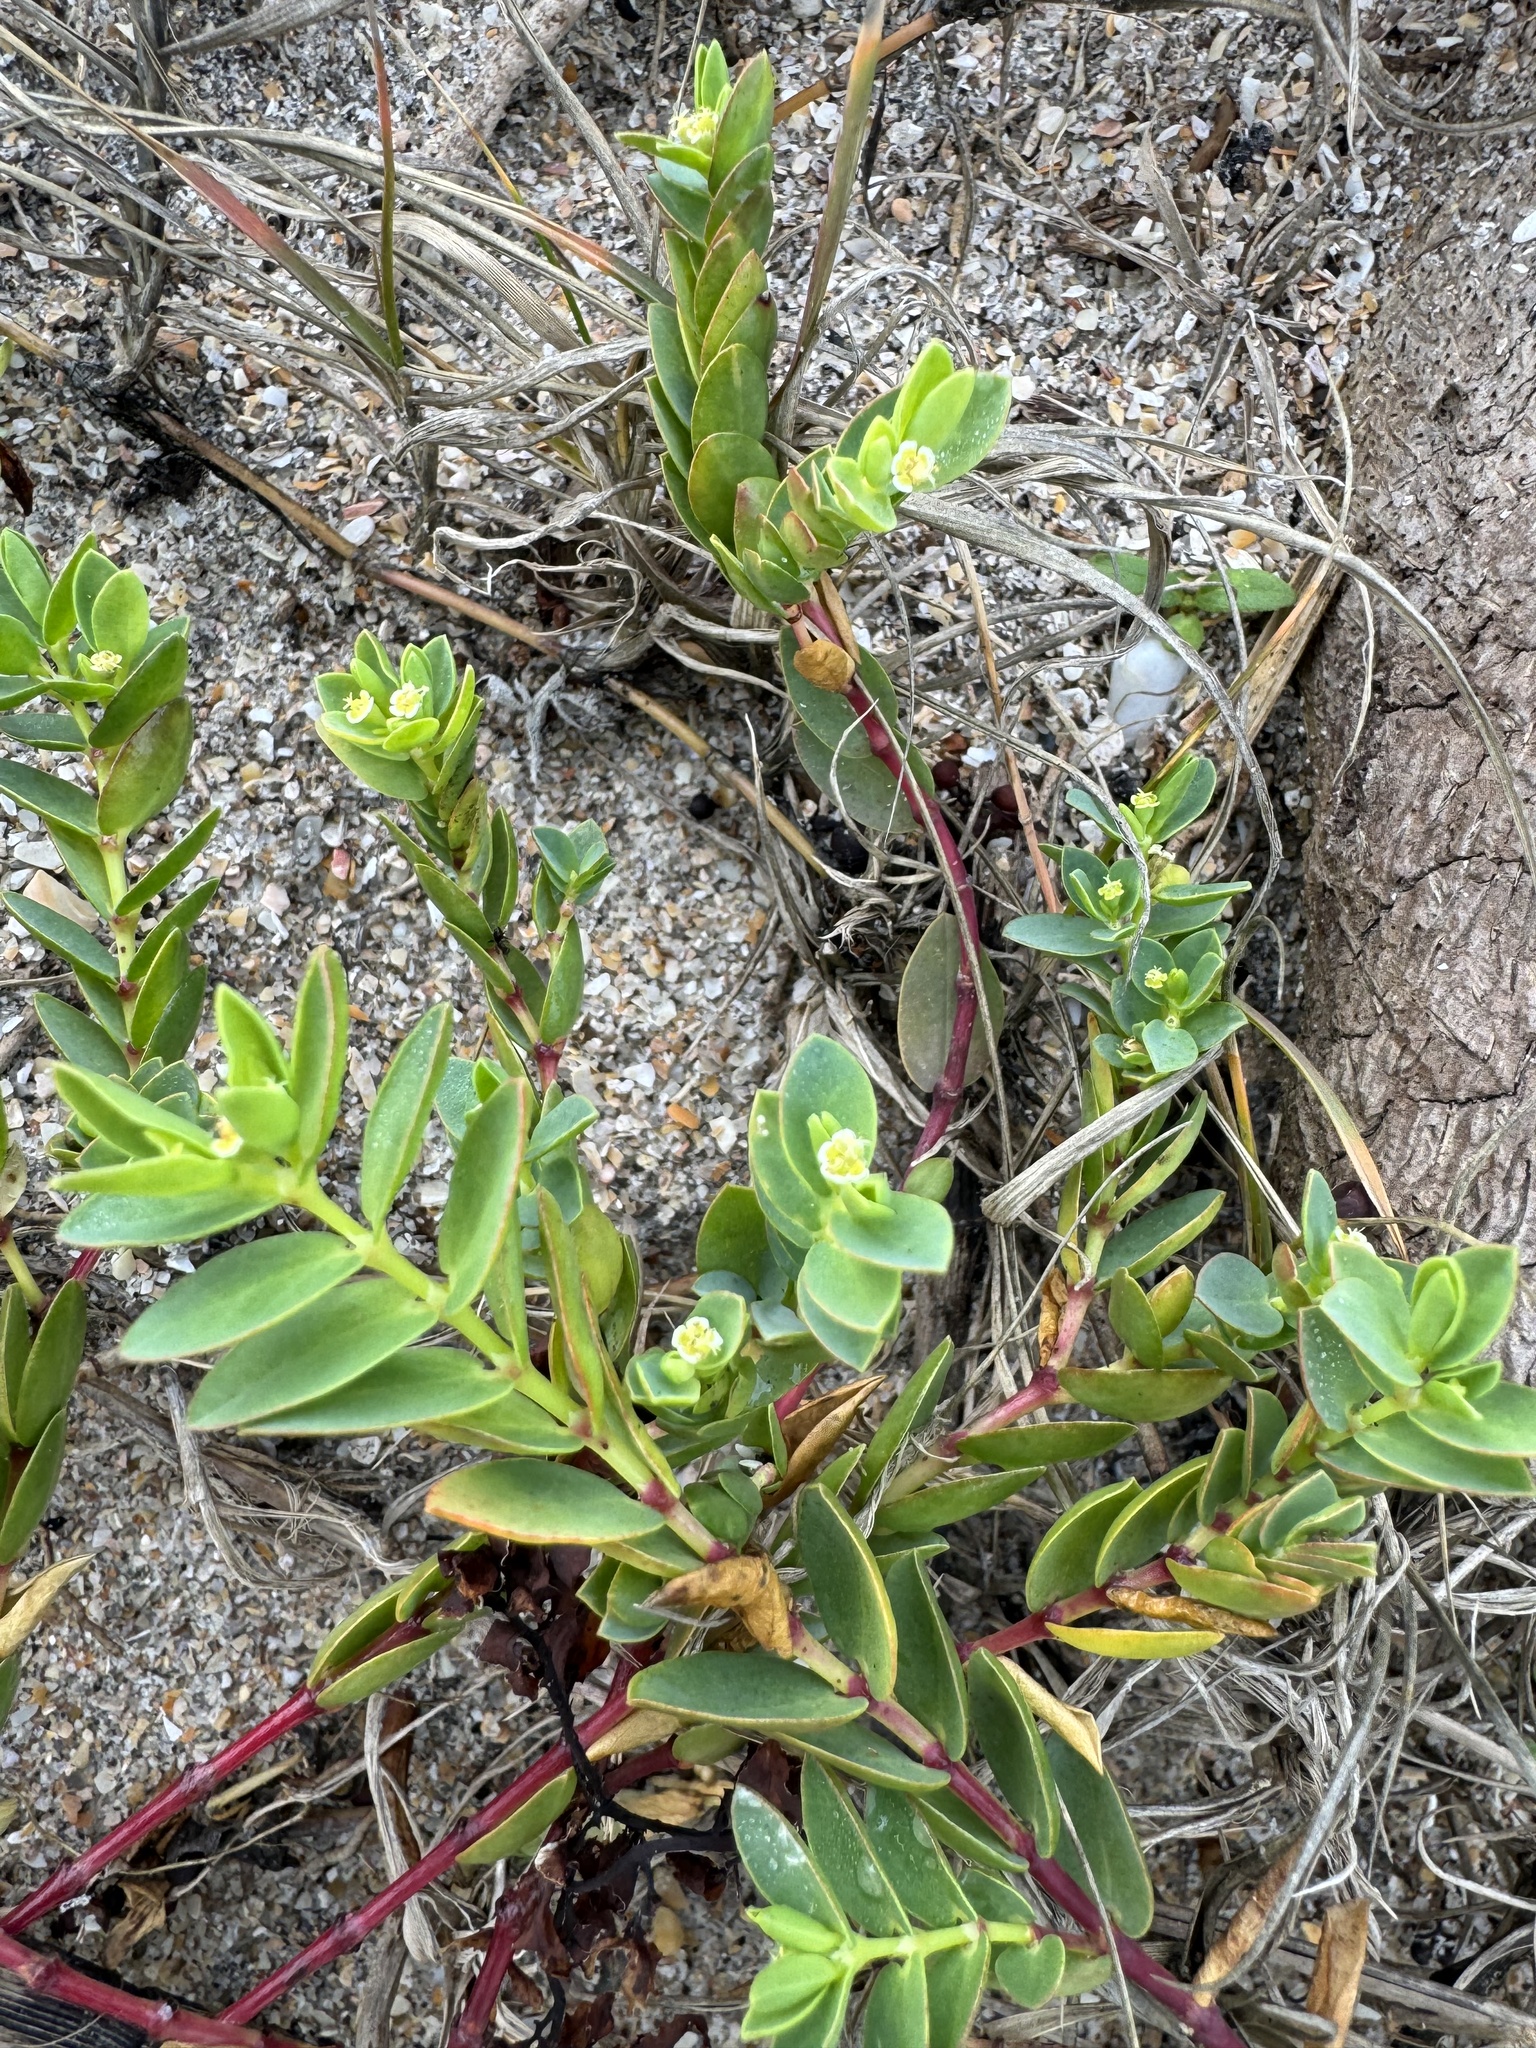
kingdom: Plantae
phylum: Tracheophyta
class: Magnoliopsida
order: Malpighiales
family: Euphorbiaceae
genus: Euphorbia
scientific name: Euphorbia mesembryanthemifolia
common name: Coastal beach sandmat
